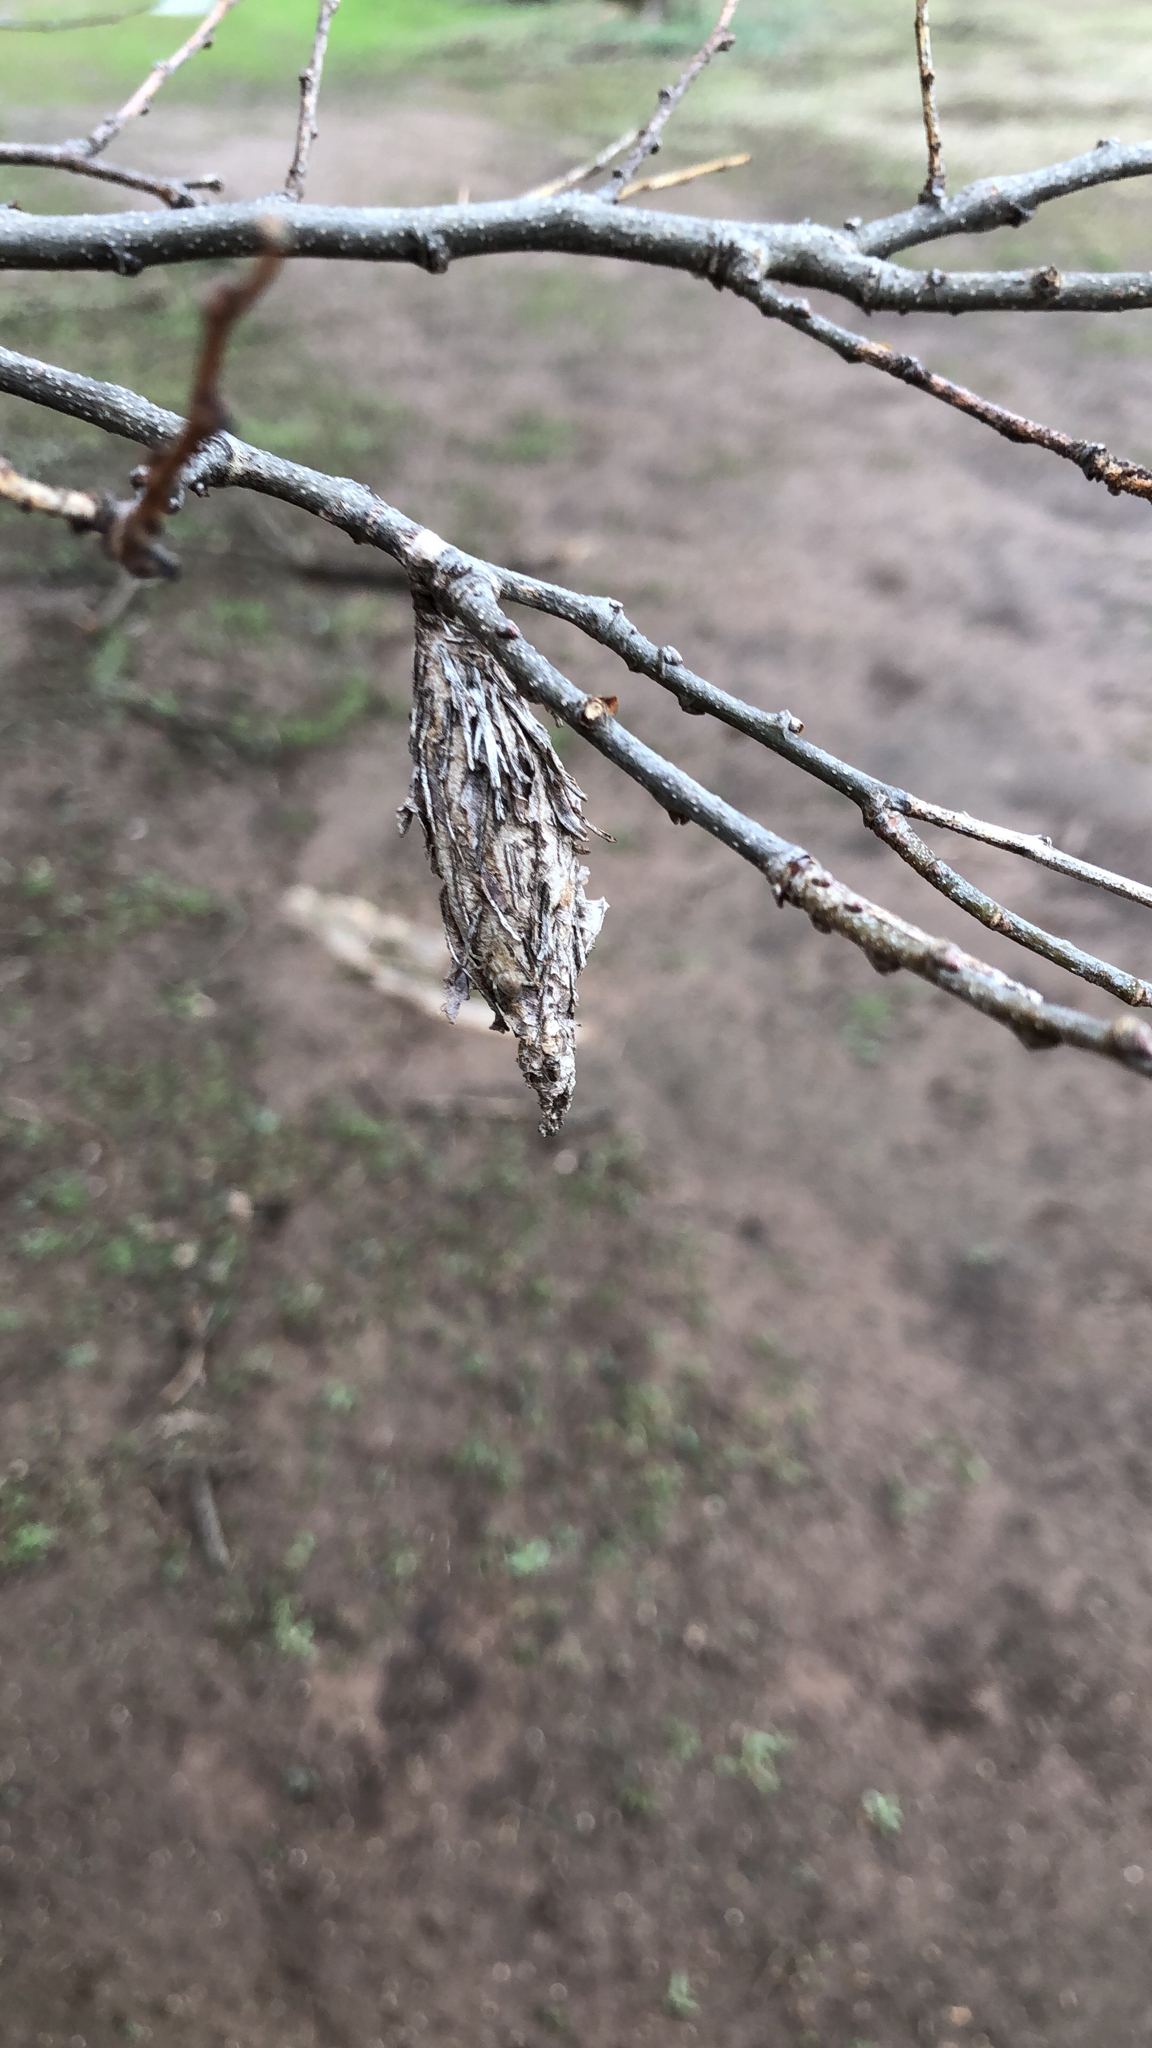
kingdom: Animalia
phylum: Arthropoda
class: Insecta
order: Lepidoptera
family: Psychidae
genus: Thyridopteryx
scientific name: Thyridopteryx ephemeraeformis
